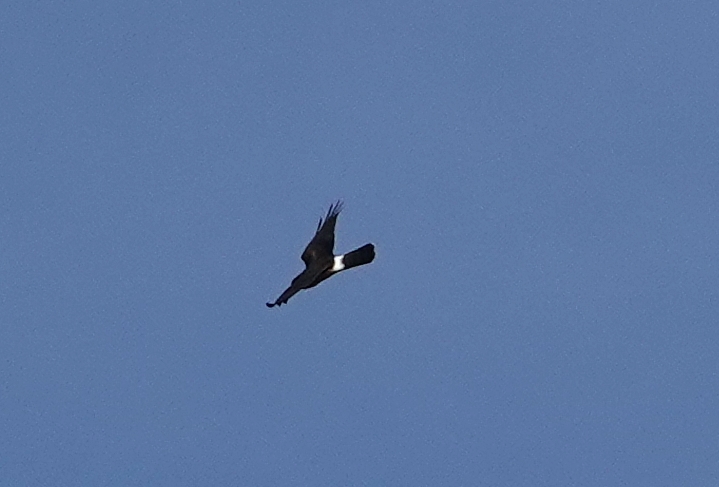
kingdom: Animalia
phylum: Chordata
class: Aves
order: Accipitriformes
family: Accipitridae
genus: Circus
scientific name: Circus cyaneus
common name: Hen harrier
